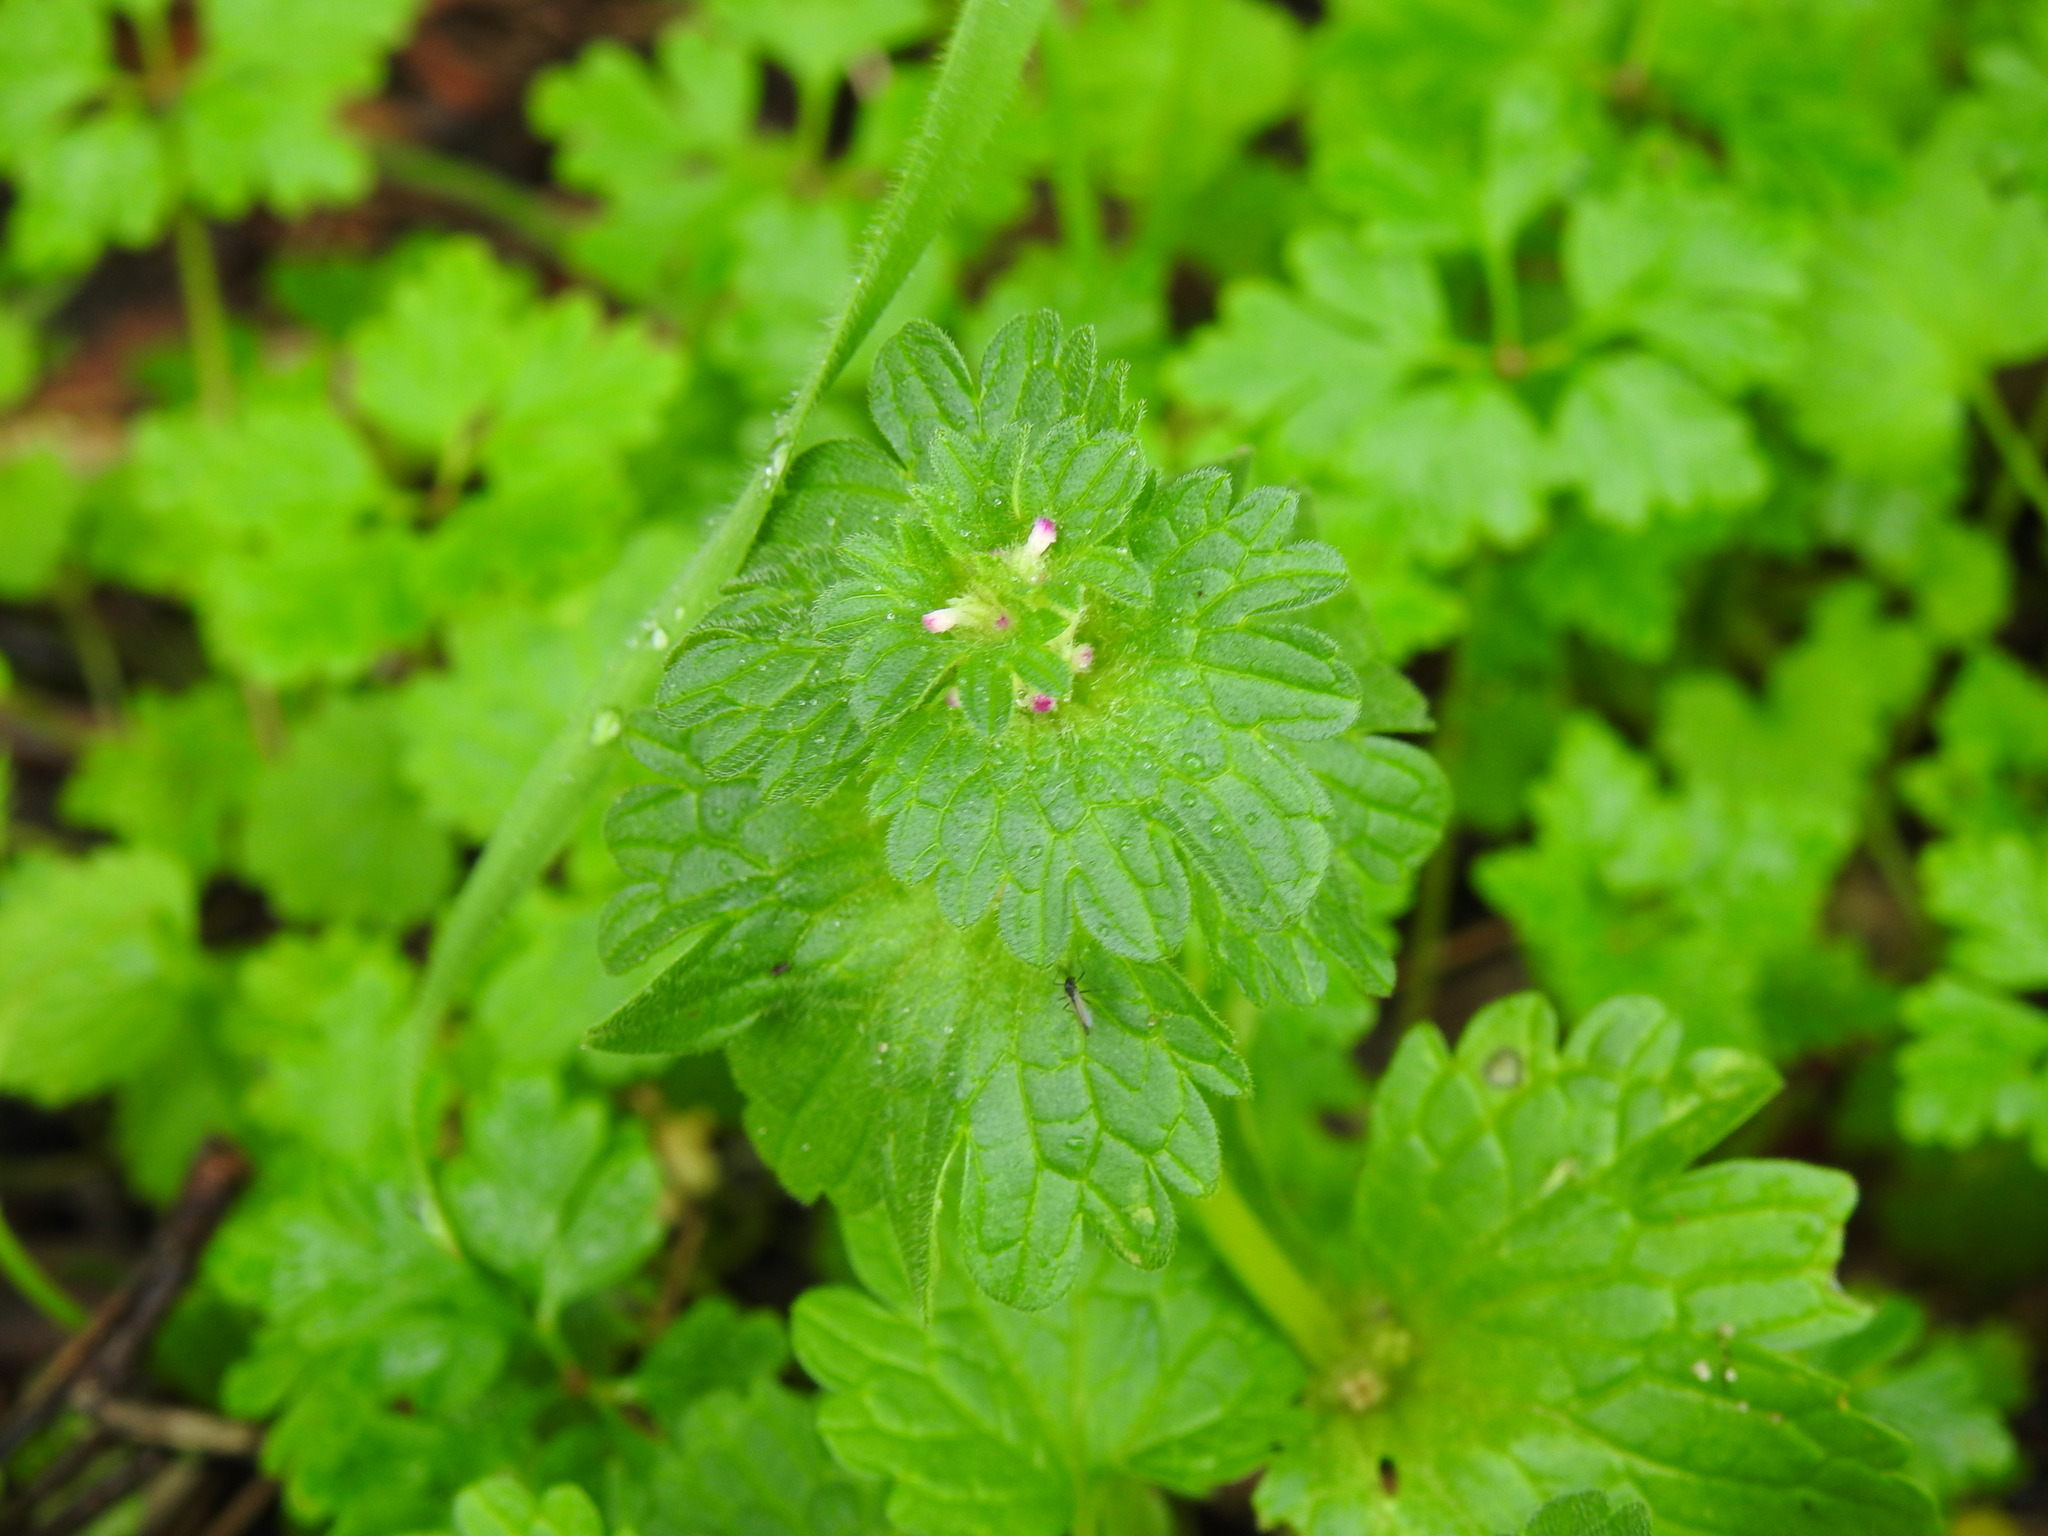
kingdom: Plantae
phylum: Tracheophyta
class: Magnoliopsida
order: Lamiales
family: Lamiaceae
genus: Lamium
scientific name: Lamium amplexicaule
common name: Henbit dead-nettle
